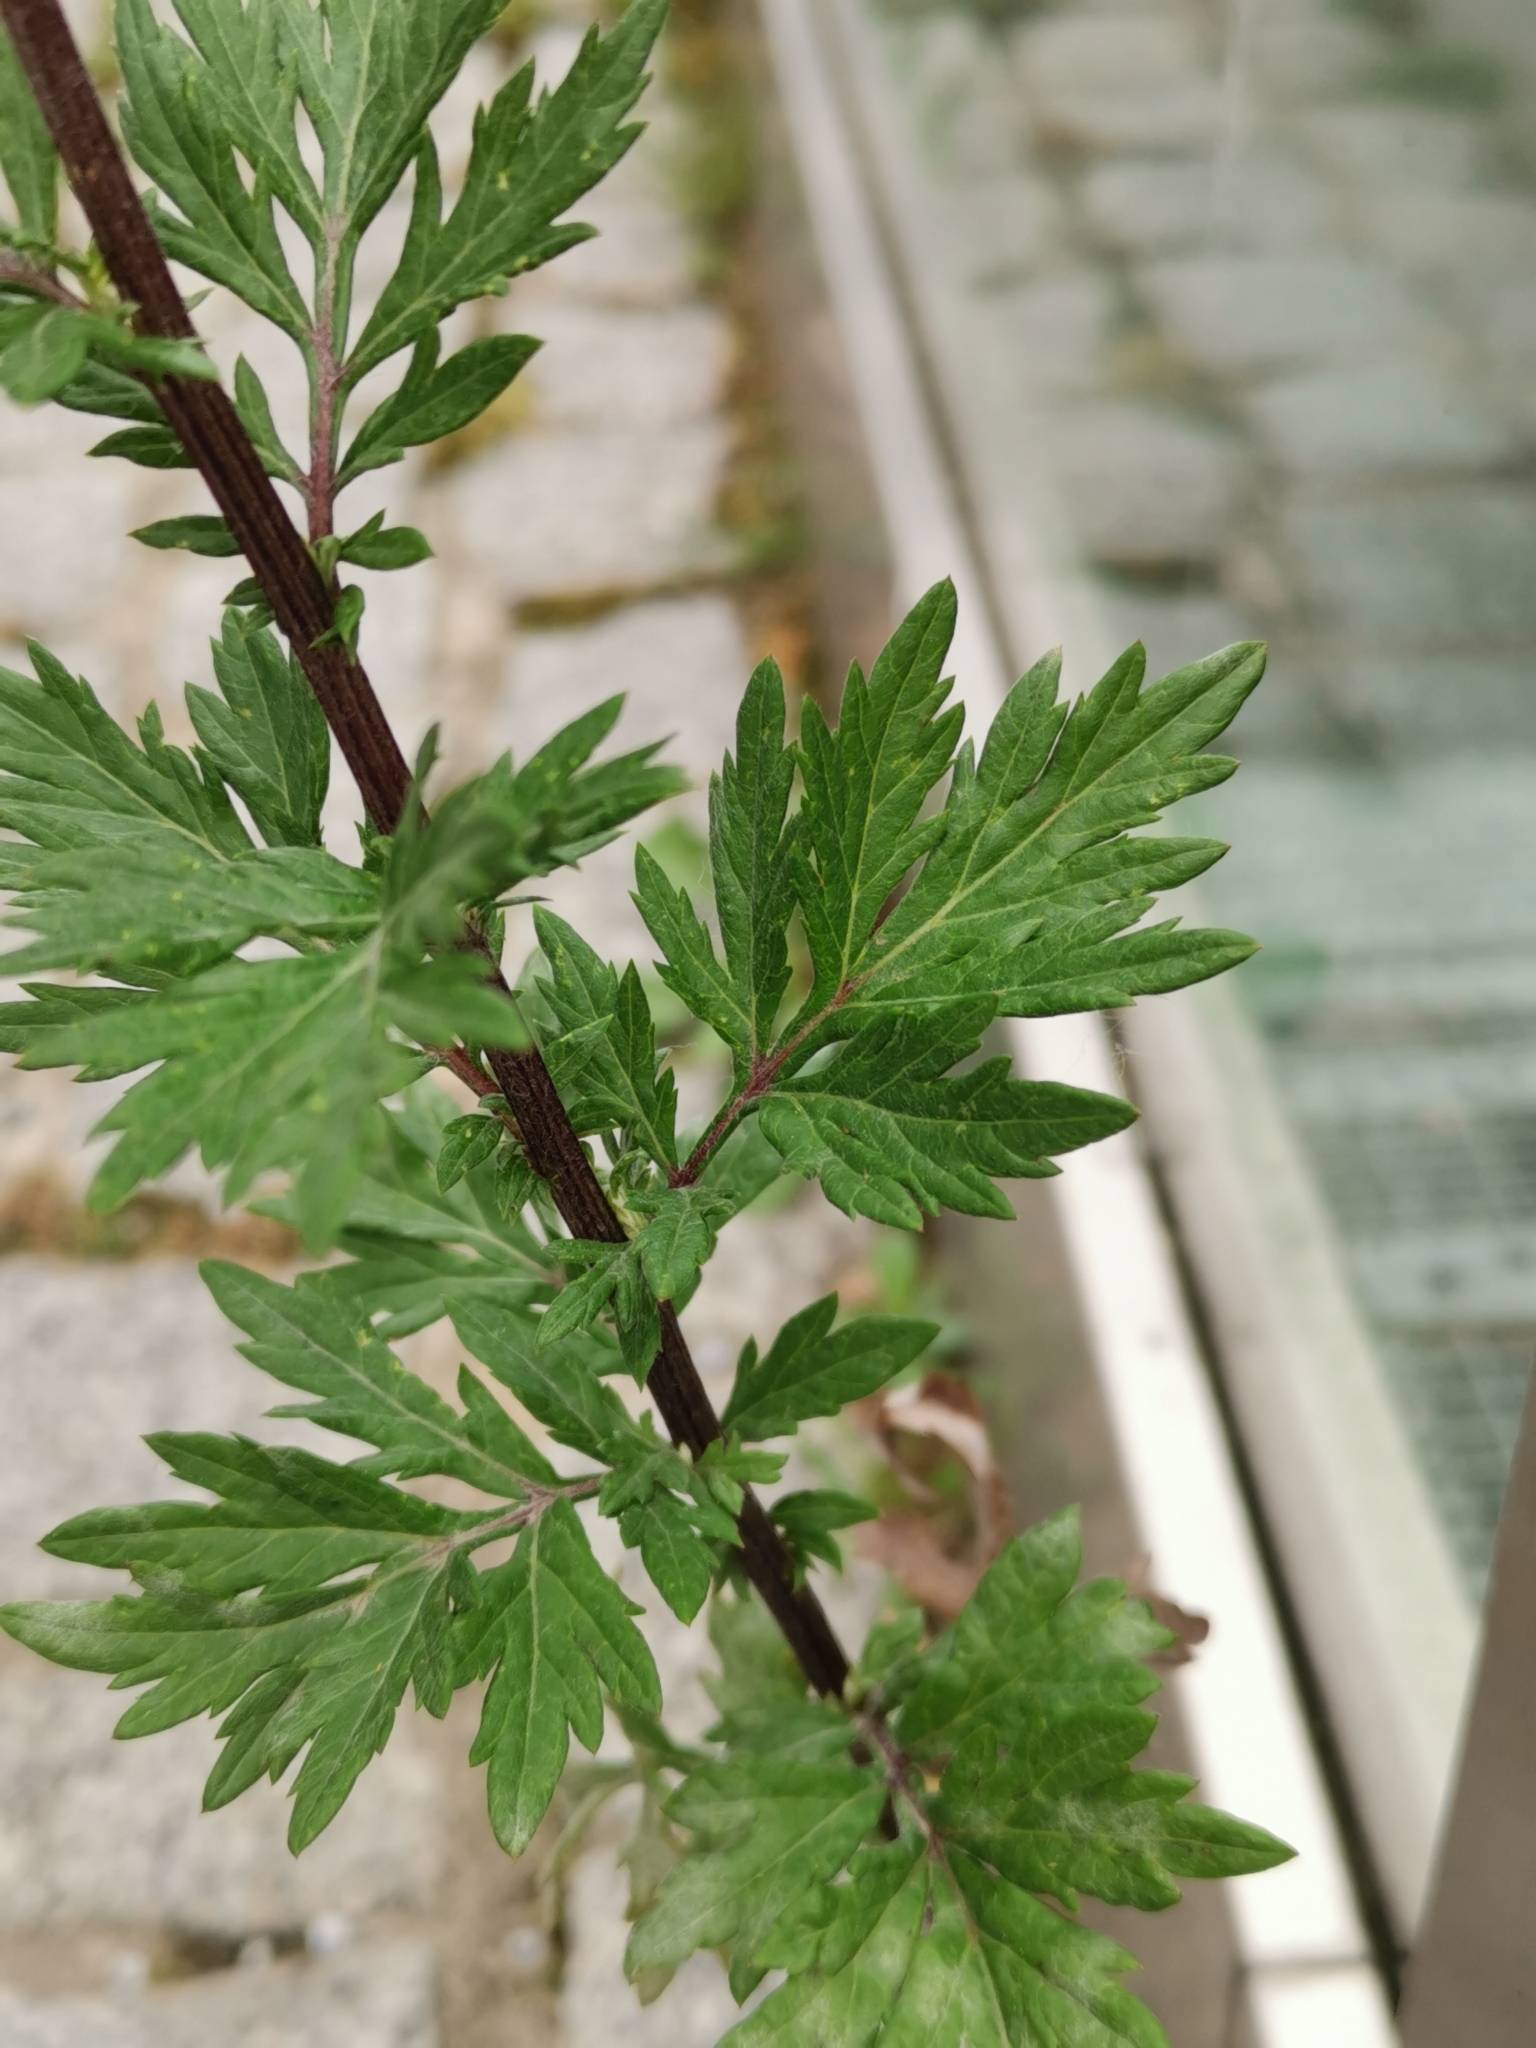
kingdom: Plantae
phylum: Tracheophyta
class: Magnoliopsida
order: Asterales
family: Asteraceae
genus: Artemisia
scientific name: Artemisia vulgaris
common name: Mugwort
